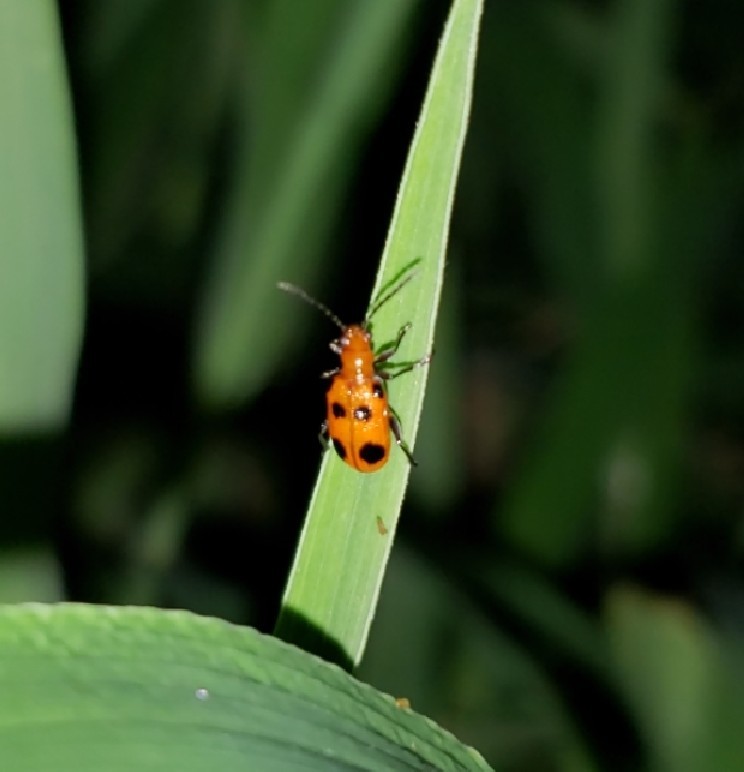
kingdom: Animalia
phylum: Arthropoda
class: Insecta
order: Coleoptera
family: Chrysomelidae
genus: Neolema
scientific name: Neolema sexpunctata
